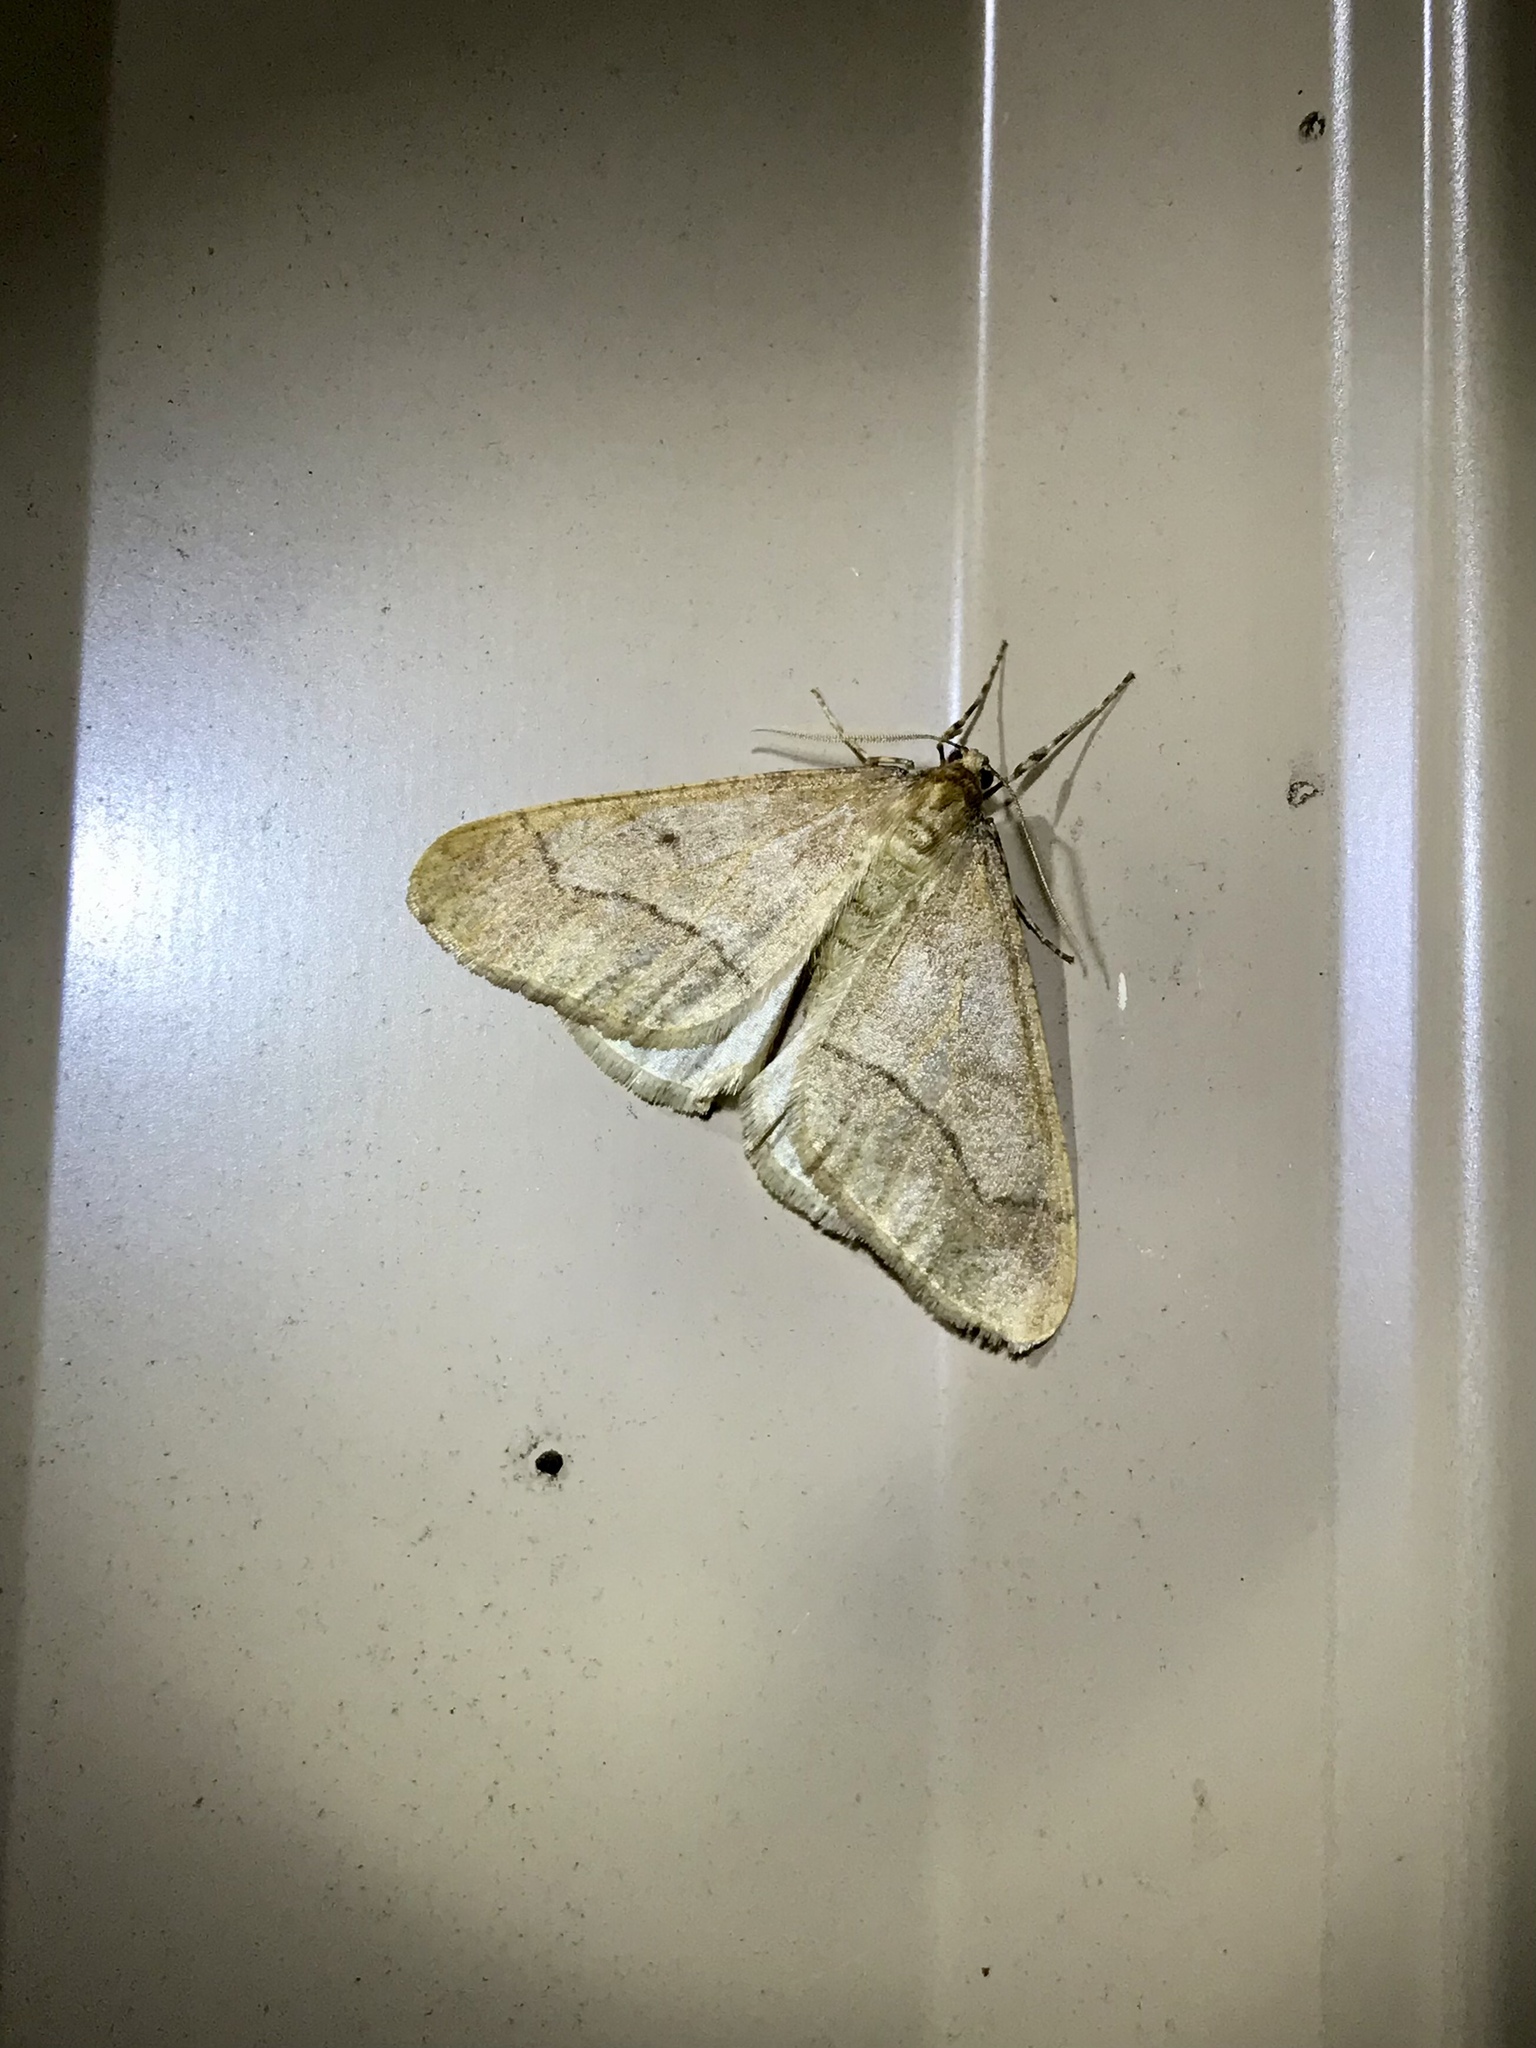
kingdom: Animalia
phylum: Arthropoda
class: Insecta
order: Lepidoptera
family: Geometridae
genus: Erannis
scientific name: Erannis tiliaria
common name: Linden looper
